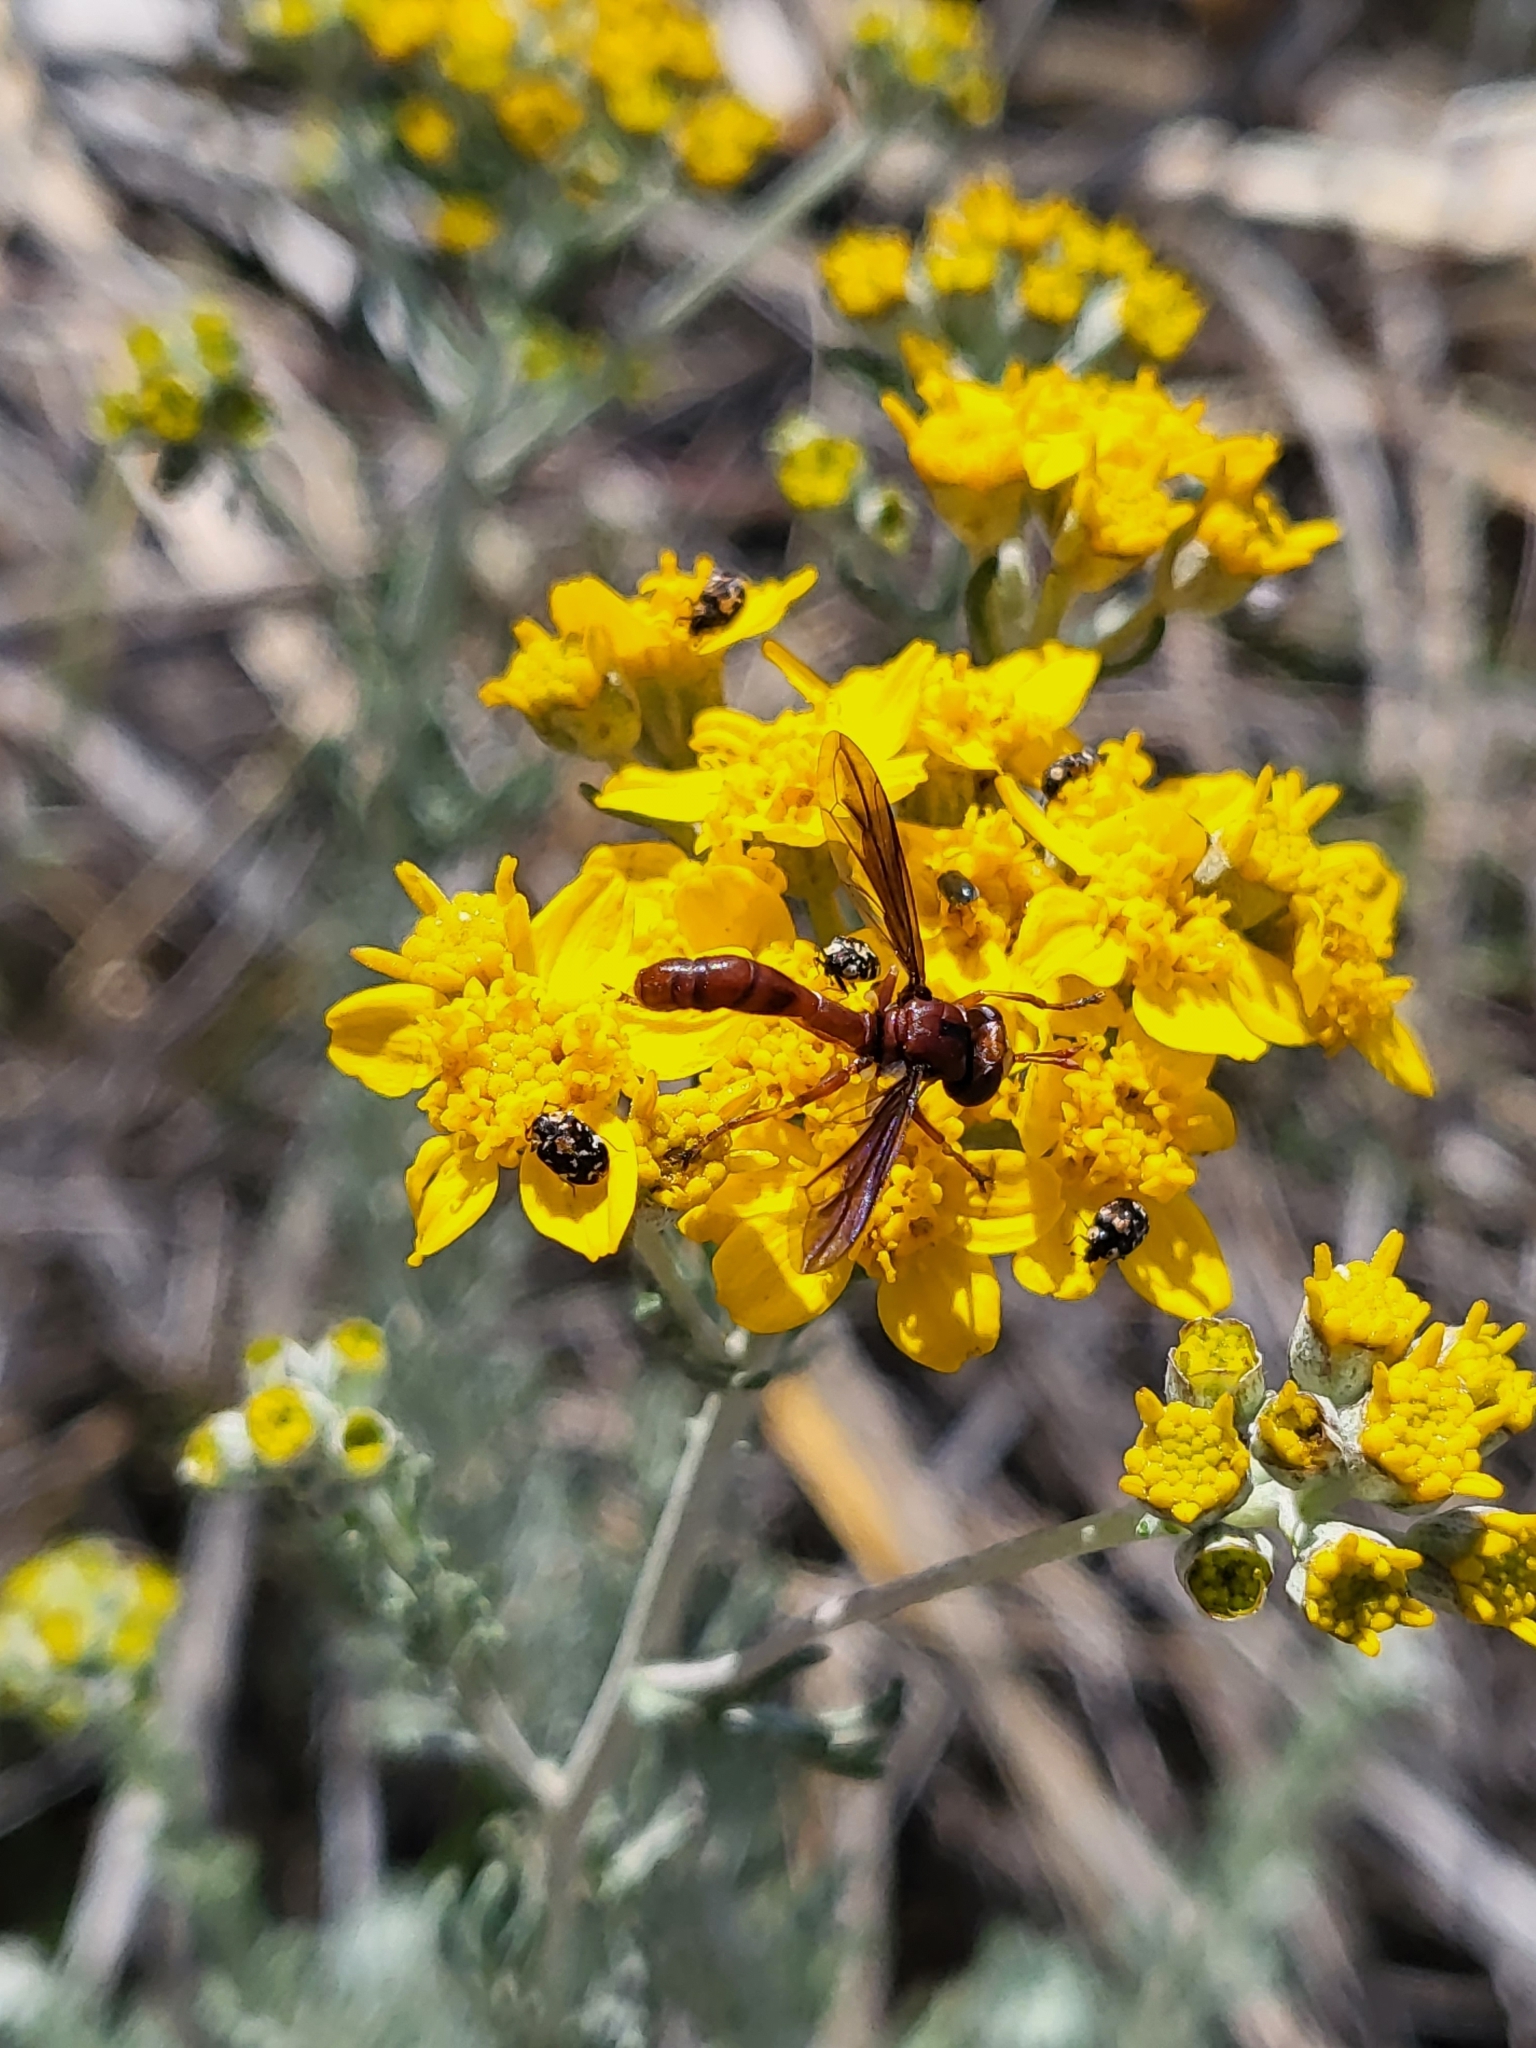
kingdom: Animalia
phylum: Arthropoda
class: Insecta
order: Diptera
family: Conopidae
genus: Physocephala
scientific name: Physocephala burgessi
